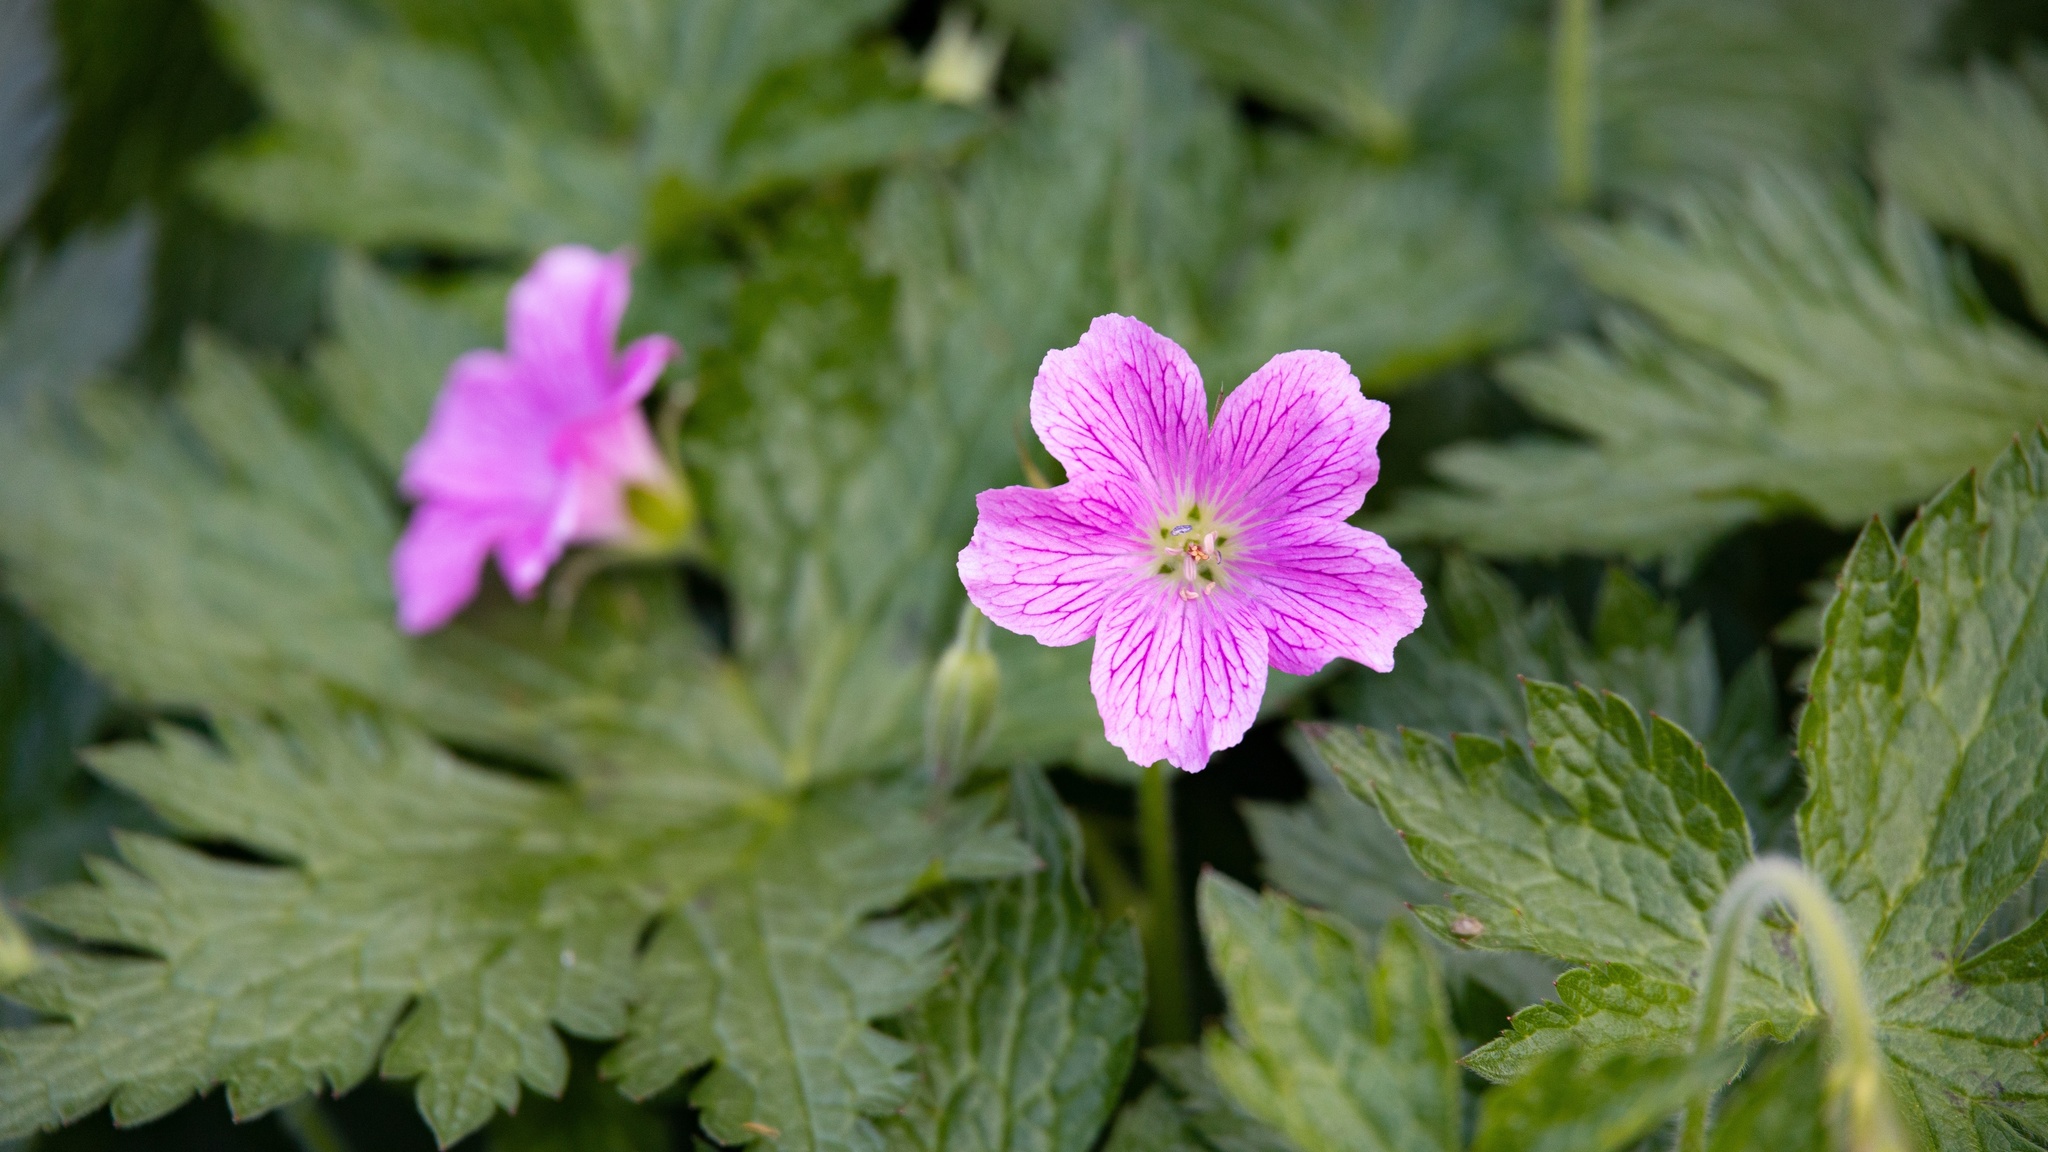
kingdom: Plantae
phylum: Tracheophyta
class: Magnoliopsida
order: Geraniales
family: Geraniaceae
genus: Geranium
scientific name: Geranium oxonianum
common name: Druce's crane's-bill
